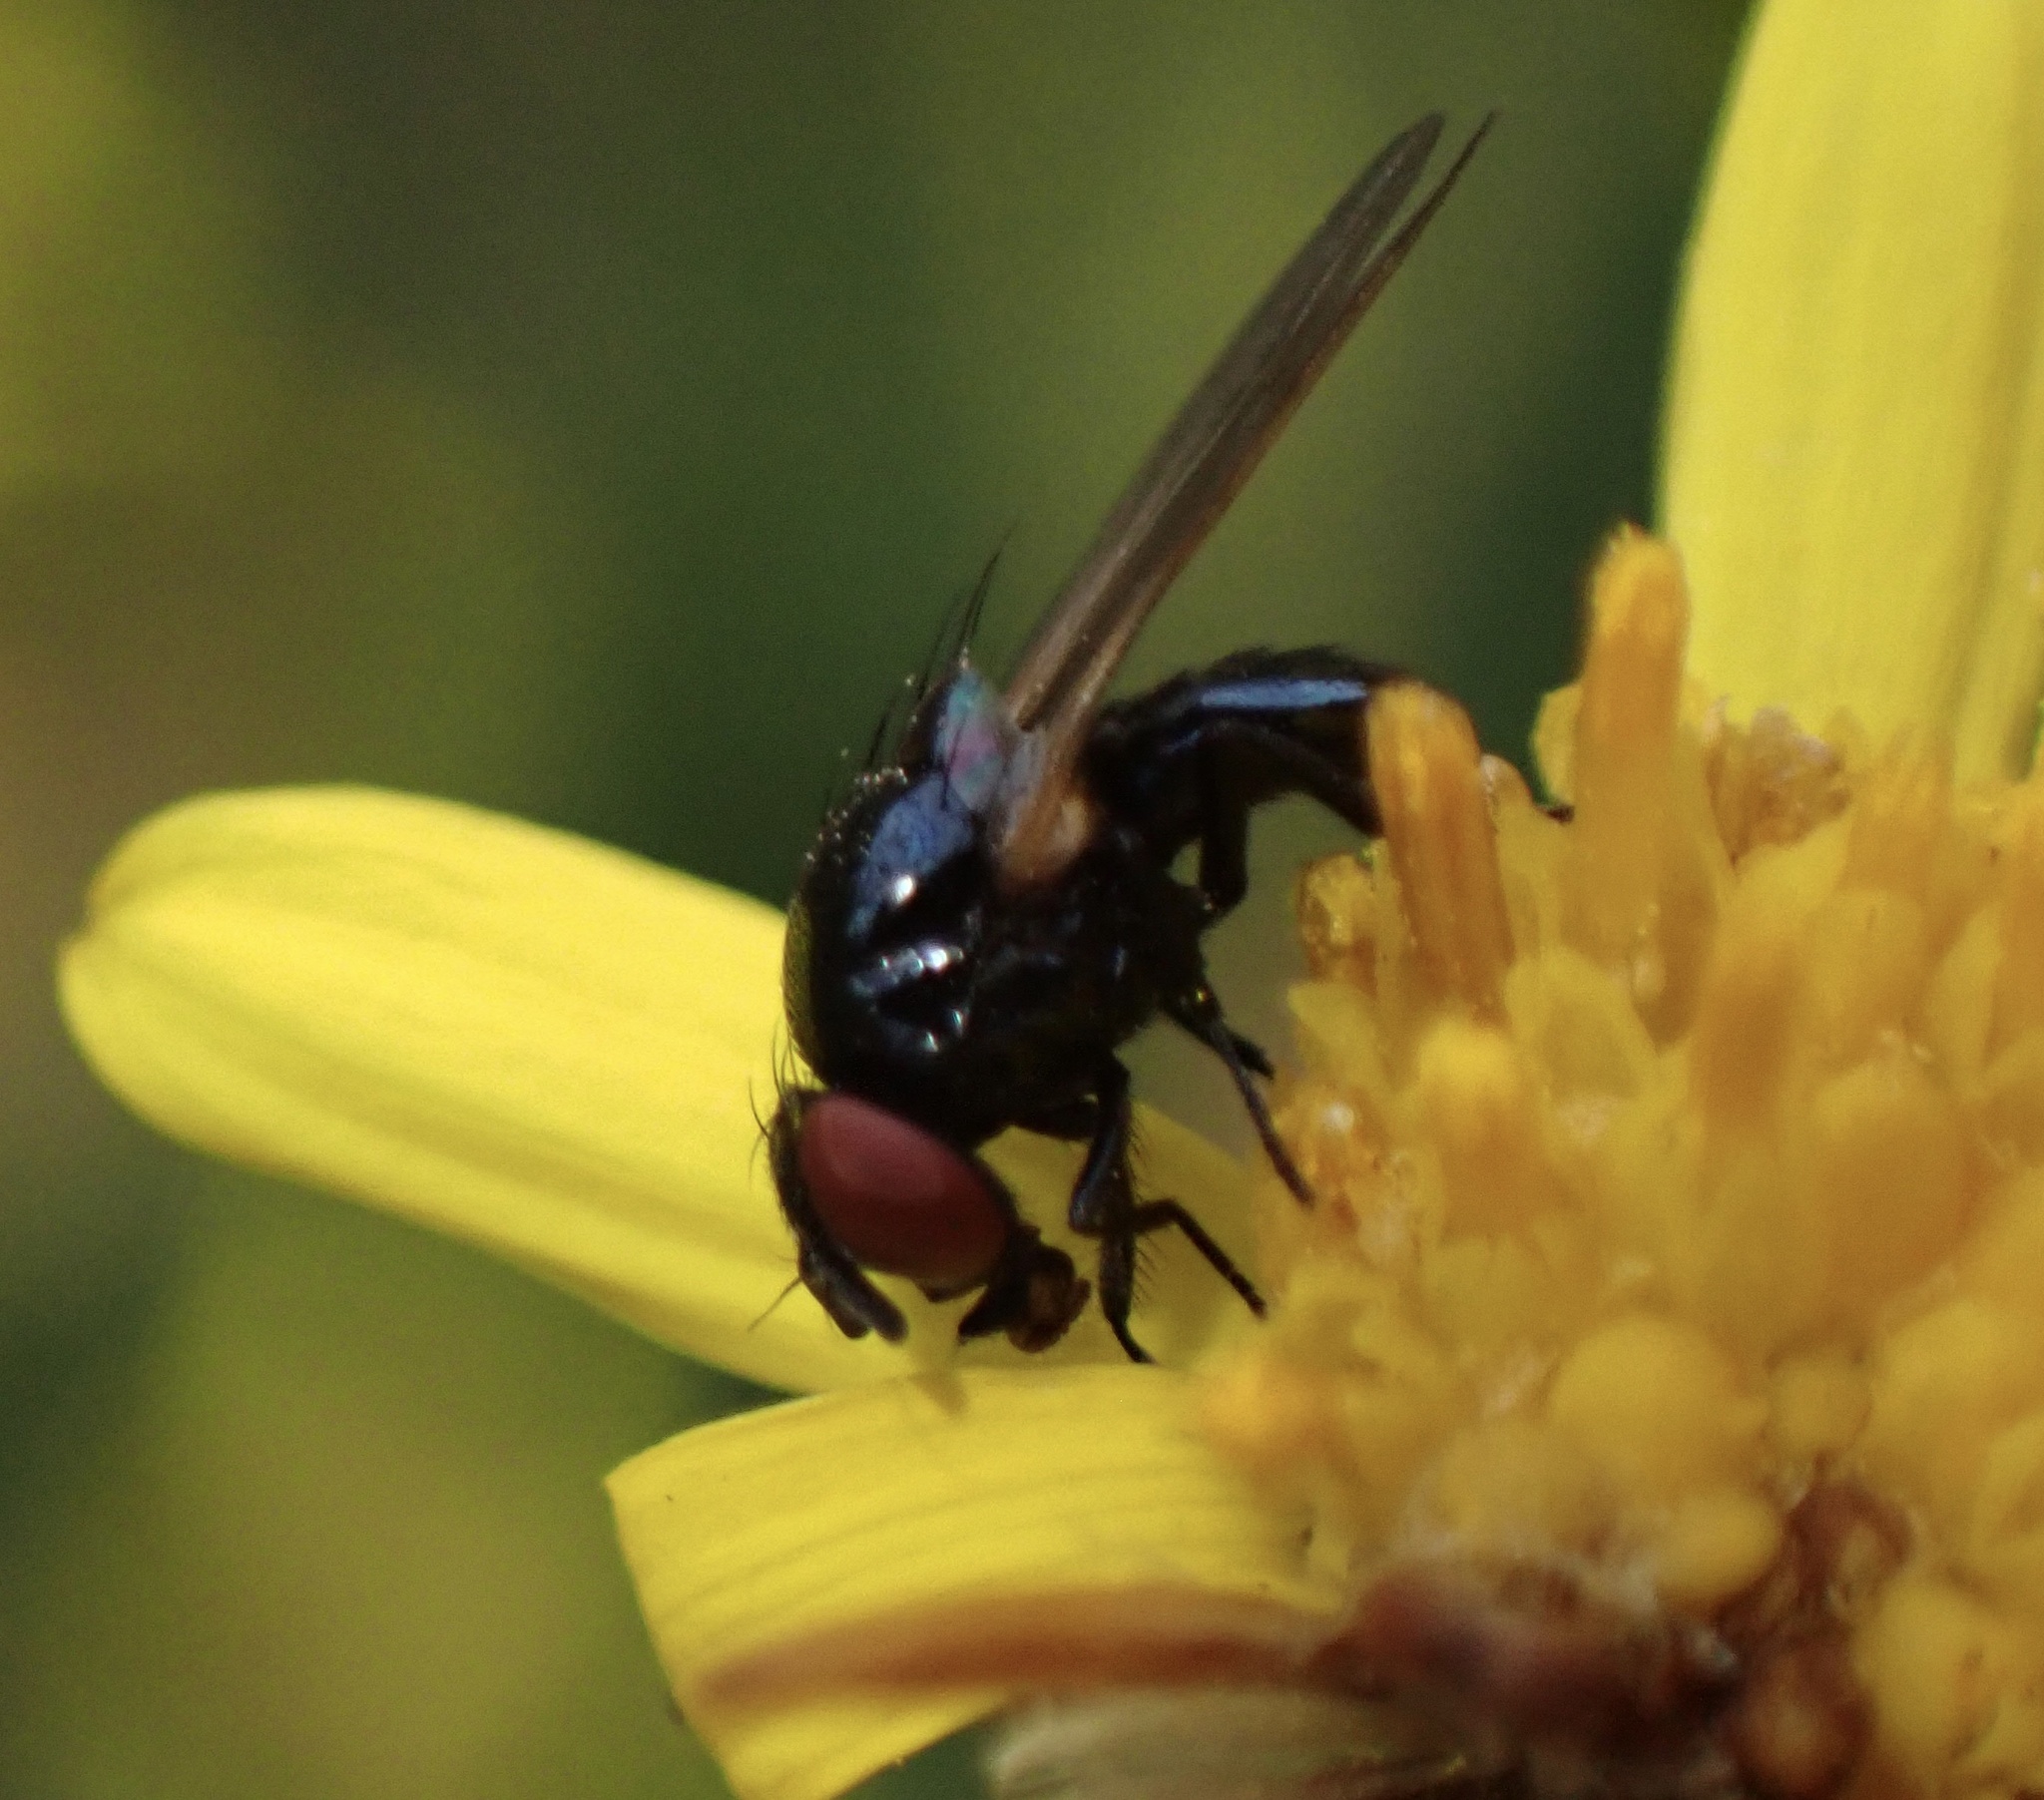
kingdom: Animalia
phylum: Arthropoda
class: Insecta
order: Diptera
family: Lonchaeidae
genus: Silba
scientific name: Silba fumosa
